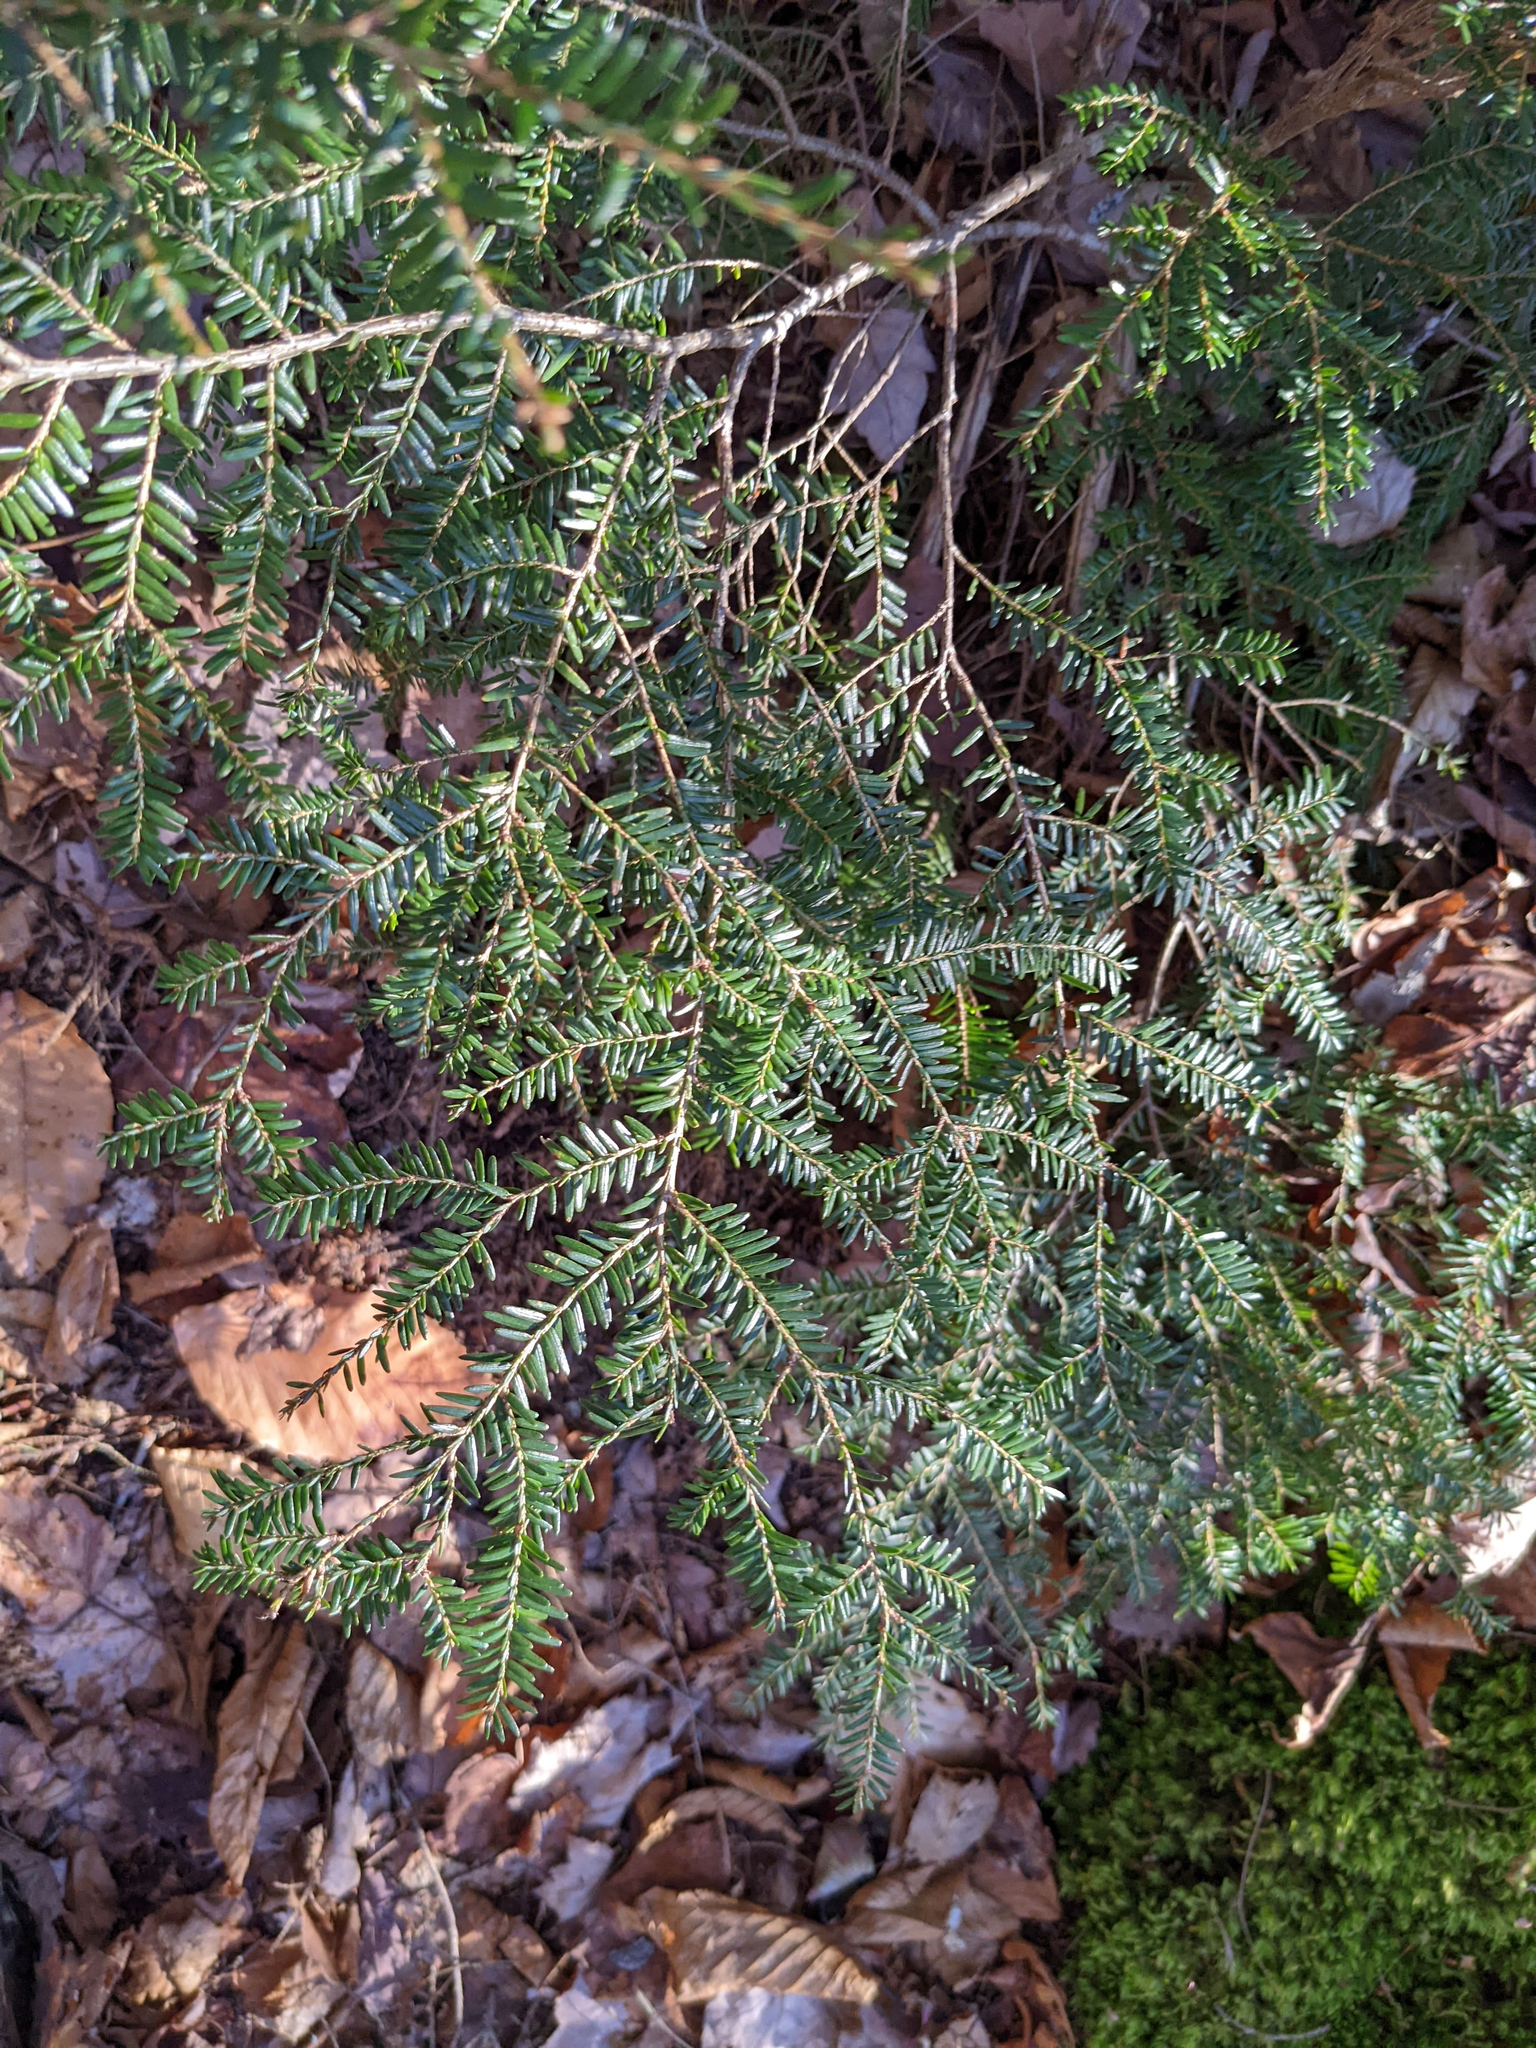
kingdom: Plantae
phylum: Tracheophyta
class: Pinopsida
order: Pinales
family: Pinaceae
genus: Tsuga
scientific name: Tsuga canadensis
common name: Eastern hemlock
